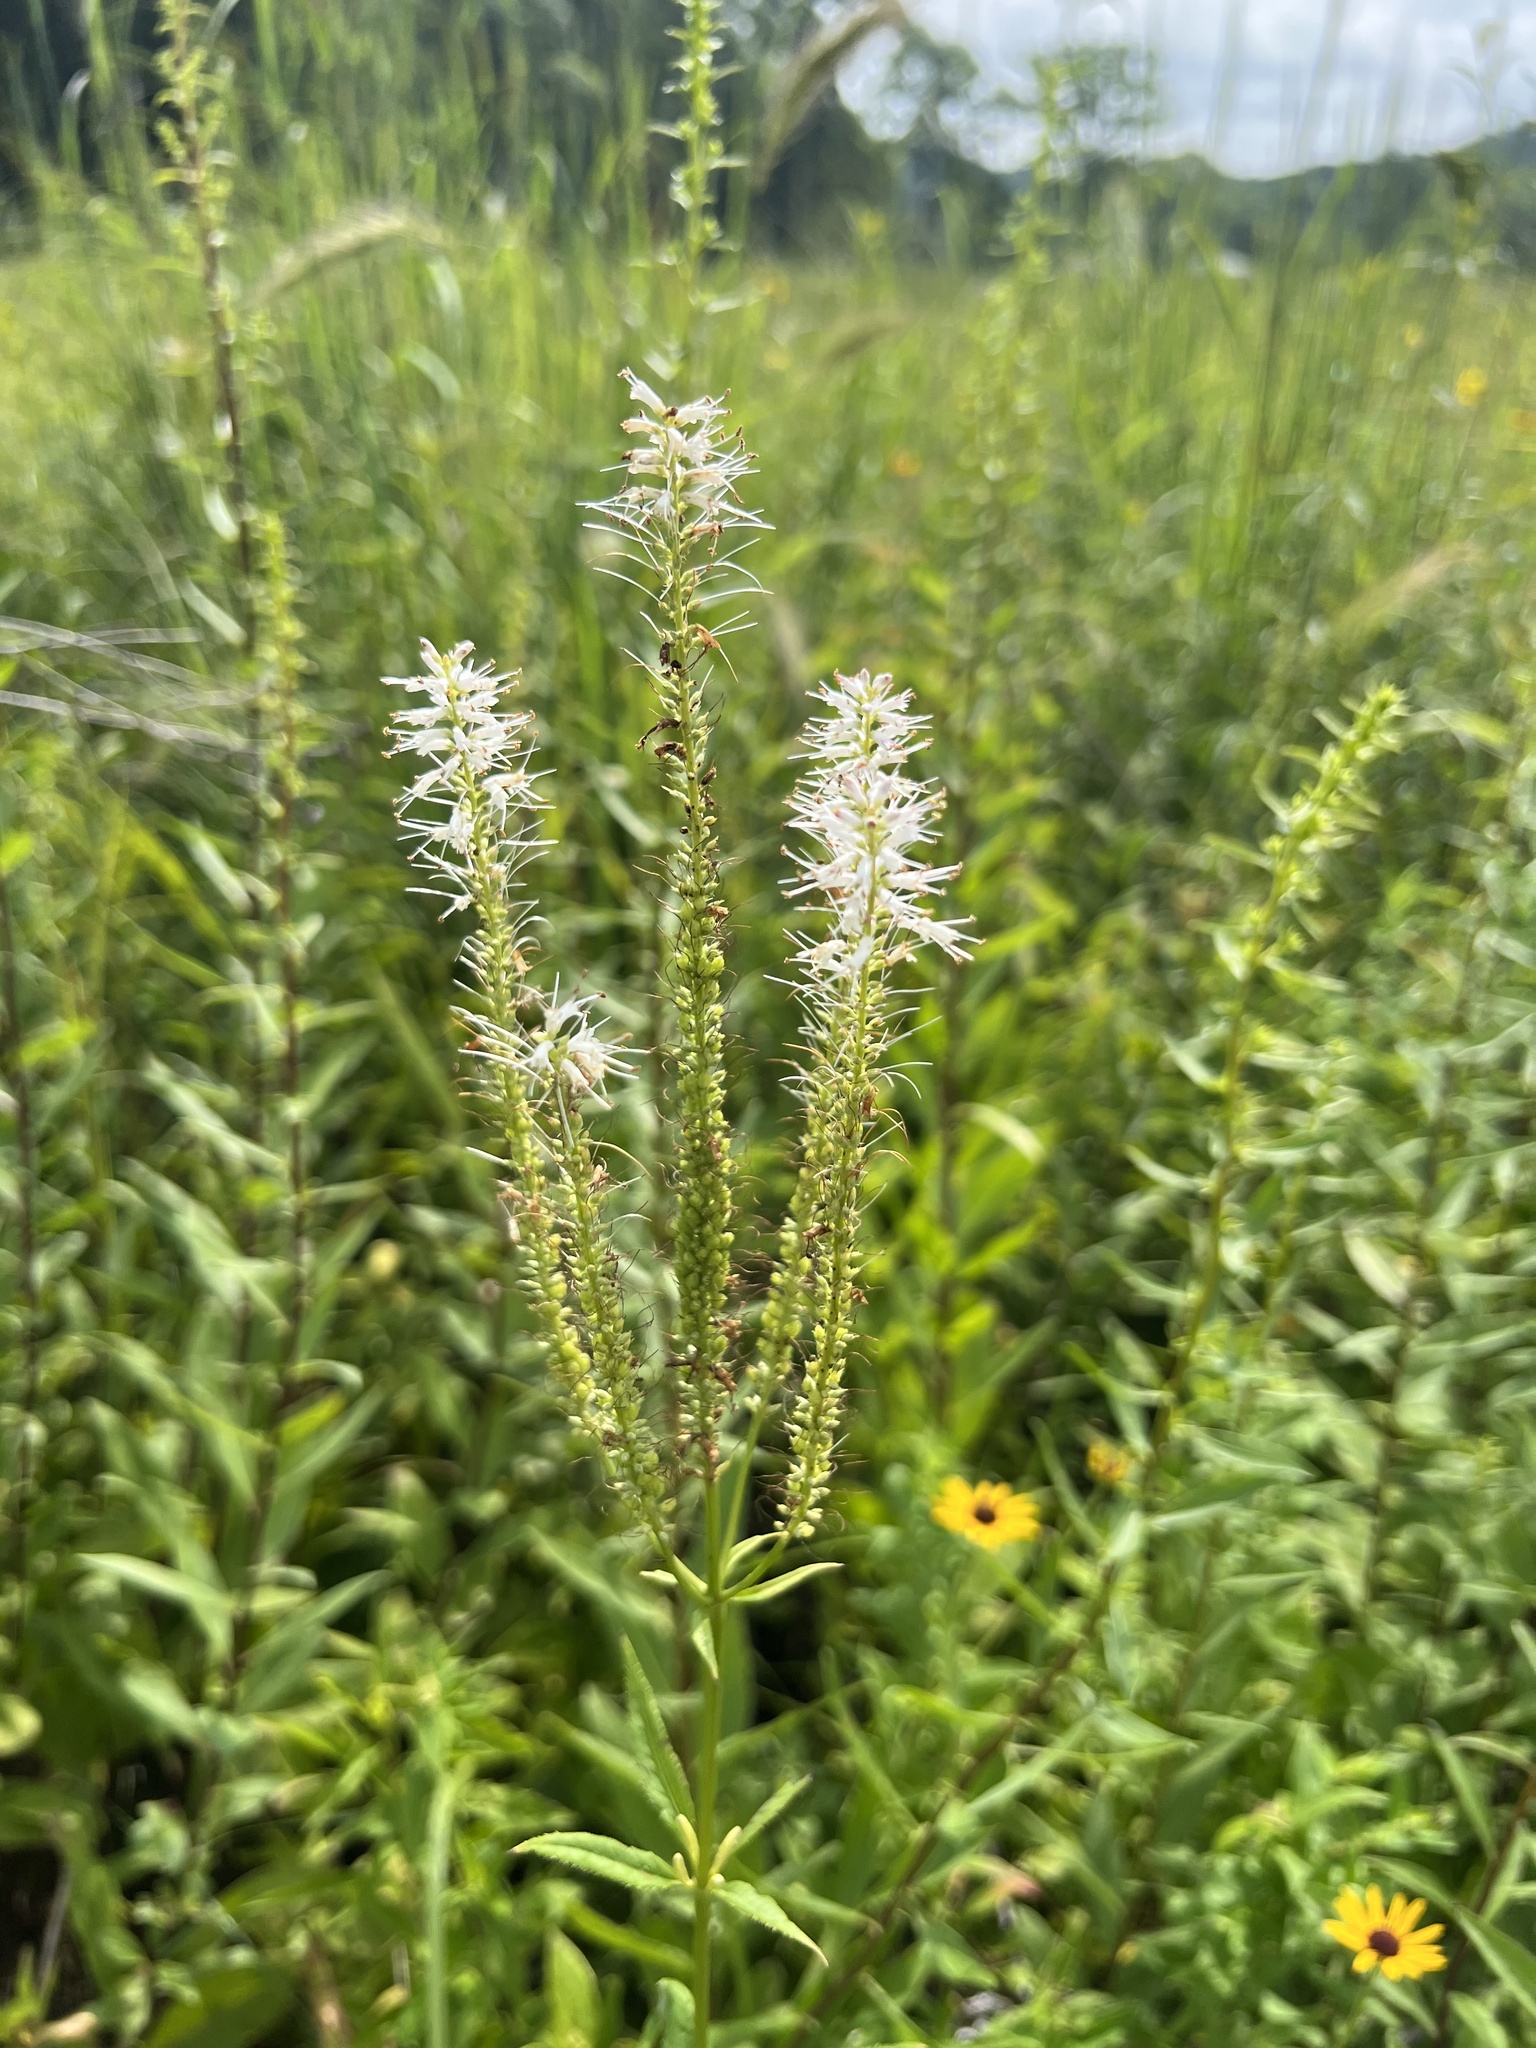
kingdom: Plantae
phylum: Tracheophyta
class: Magnoliopsida
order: Lamiales
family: Plantaginaceae
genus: Veronicastrum
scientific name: Veronicastrum virginicum
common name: Blackroot
